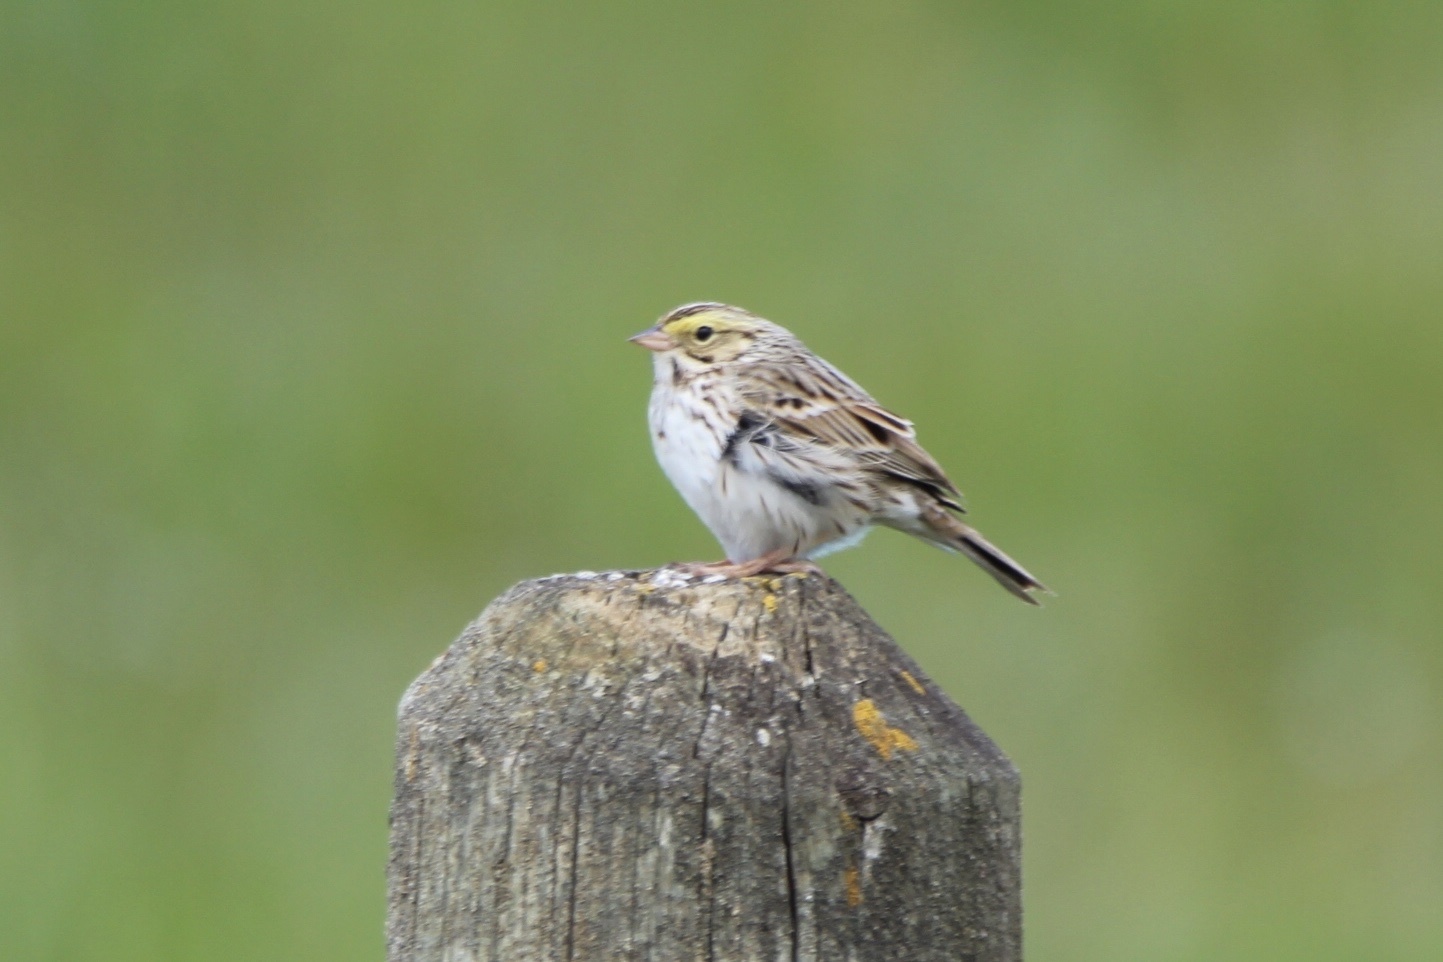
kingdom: Animalia
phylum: Chordata
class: Aves
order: Passeriformes
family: Passerellidae
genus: Passerculus
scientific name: Passerculus sandwichensis
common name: Savannah sparrow
